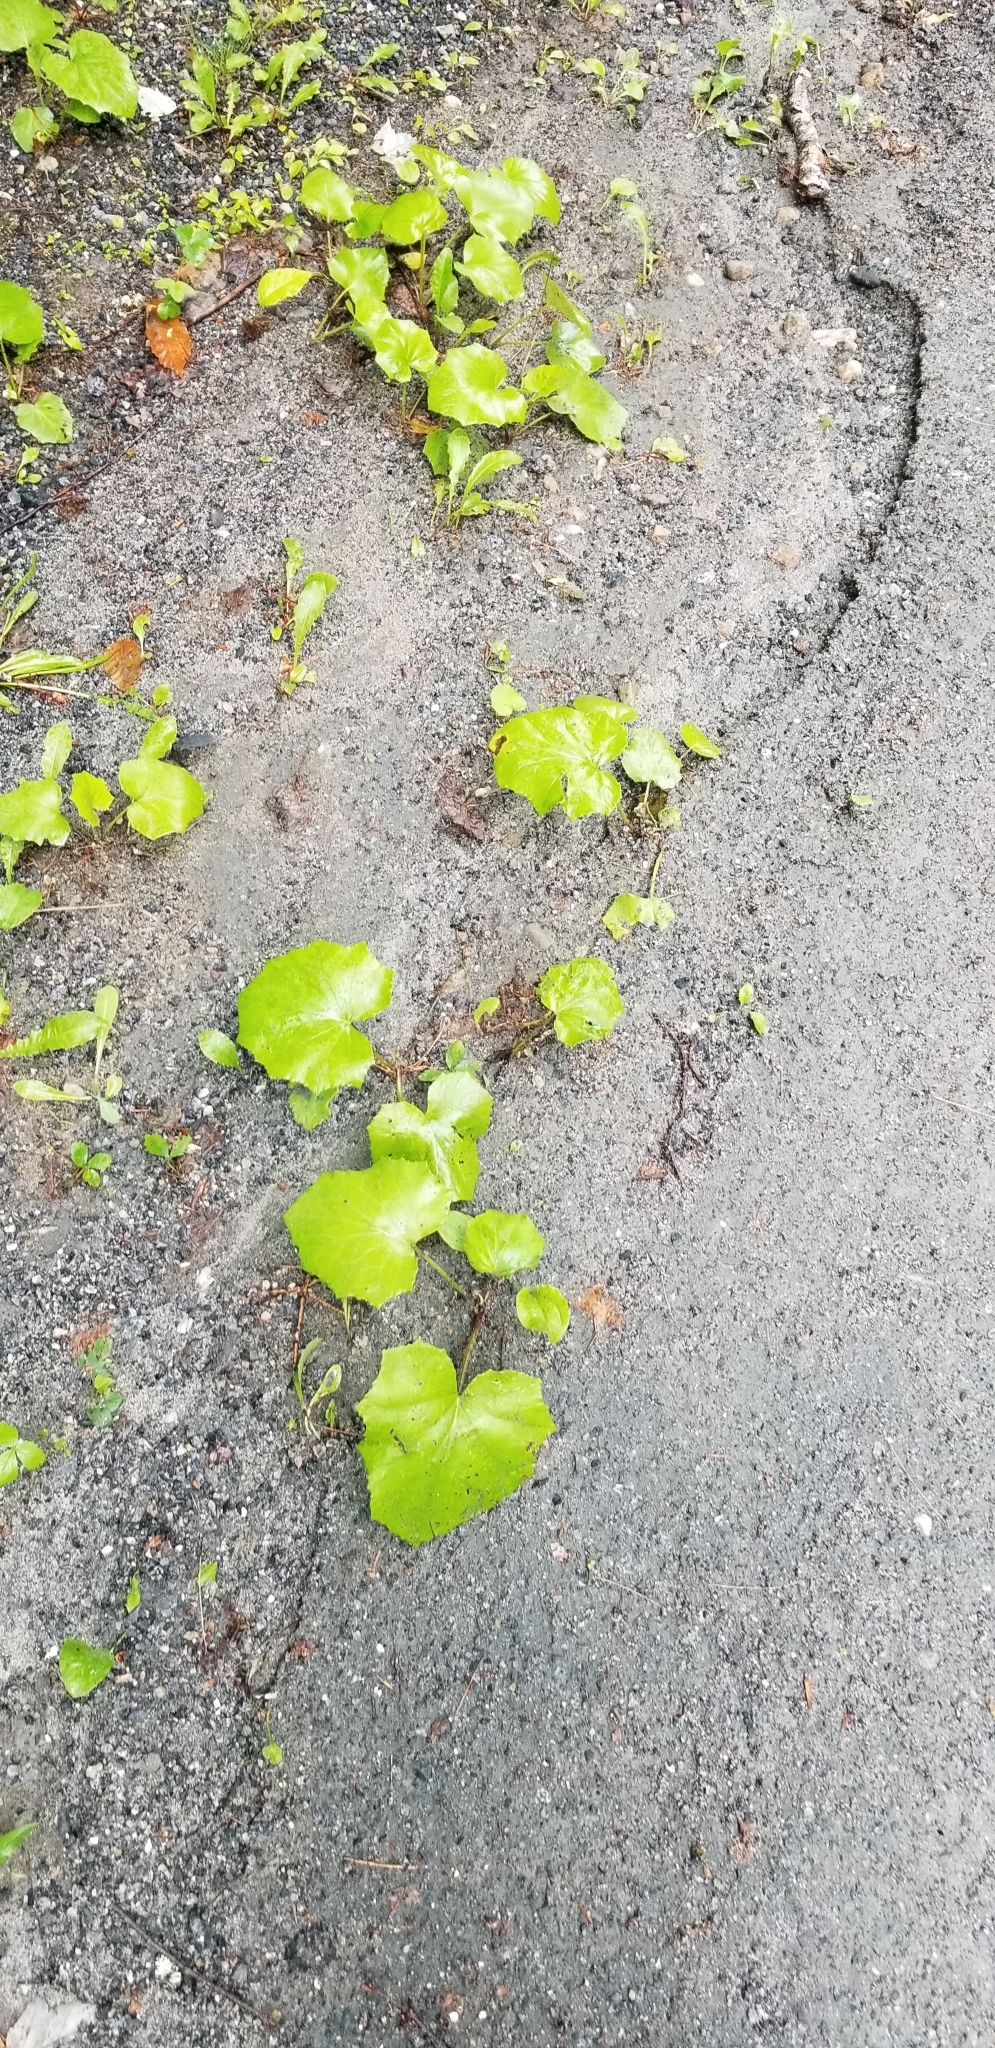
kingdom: Plantae
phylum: Tracheophyta
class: Magnoliopsida
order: Asterales
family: Asteraceae
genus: Tussilago
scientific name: Tussilago farfara
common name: Coltsfoot
